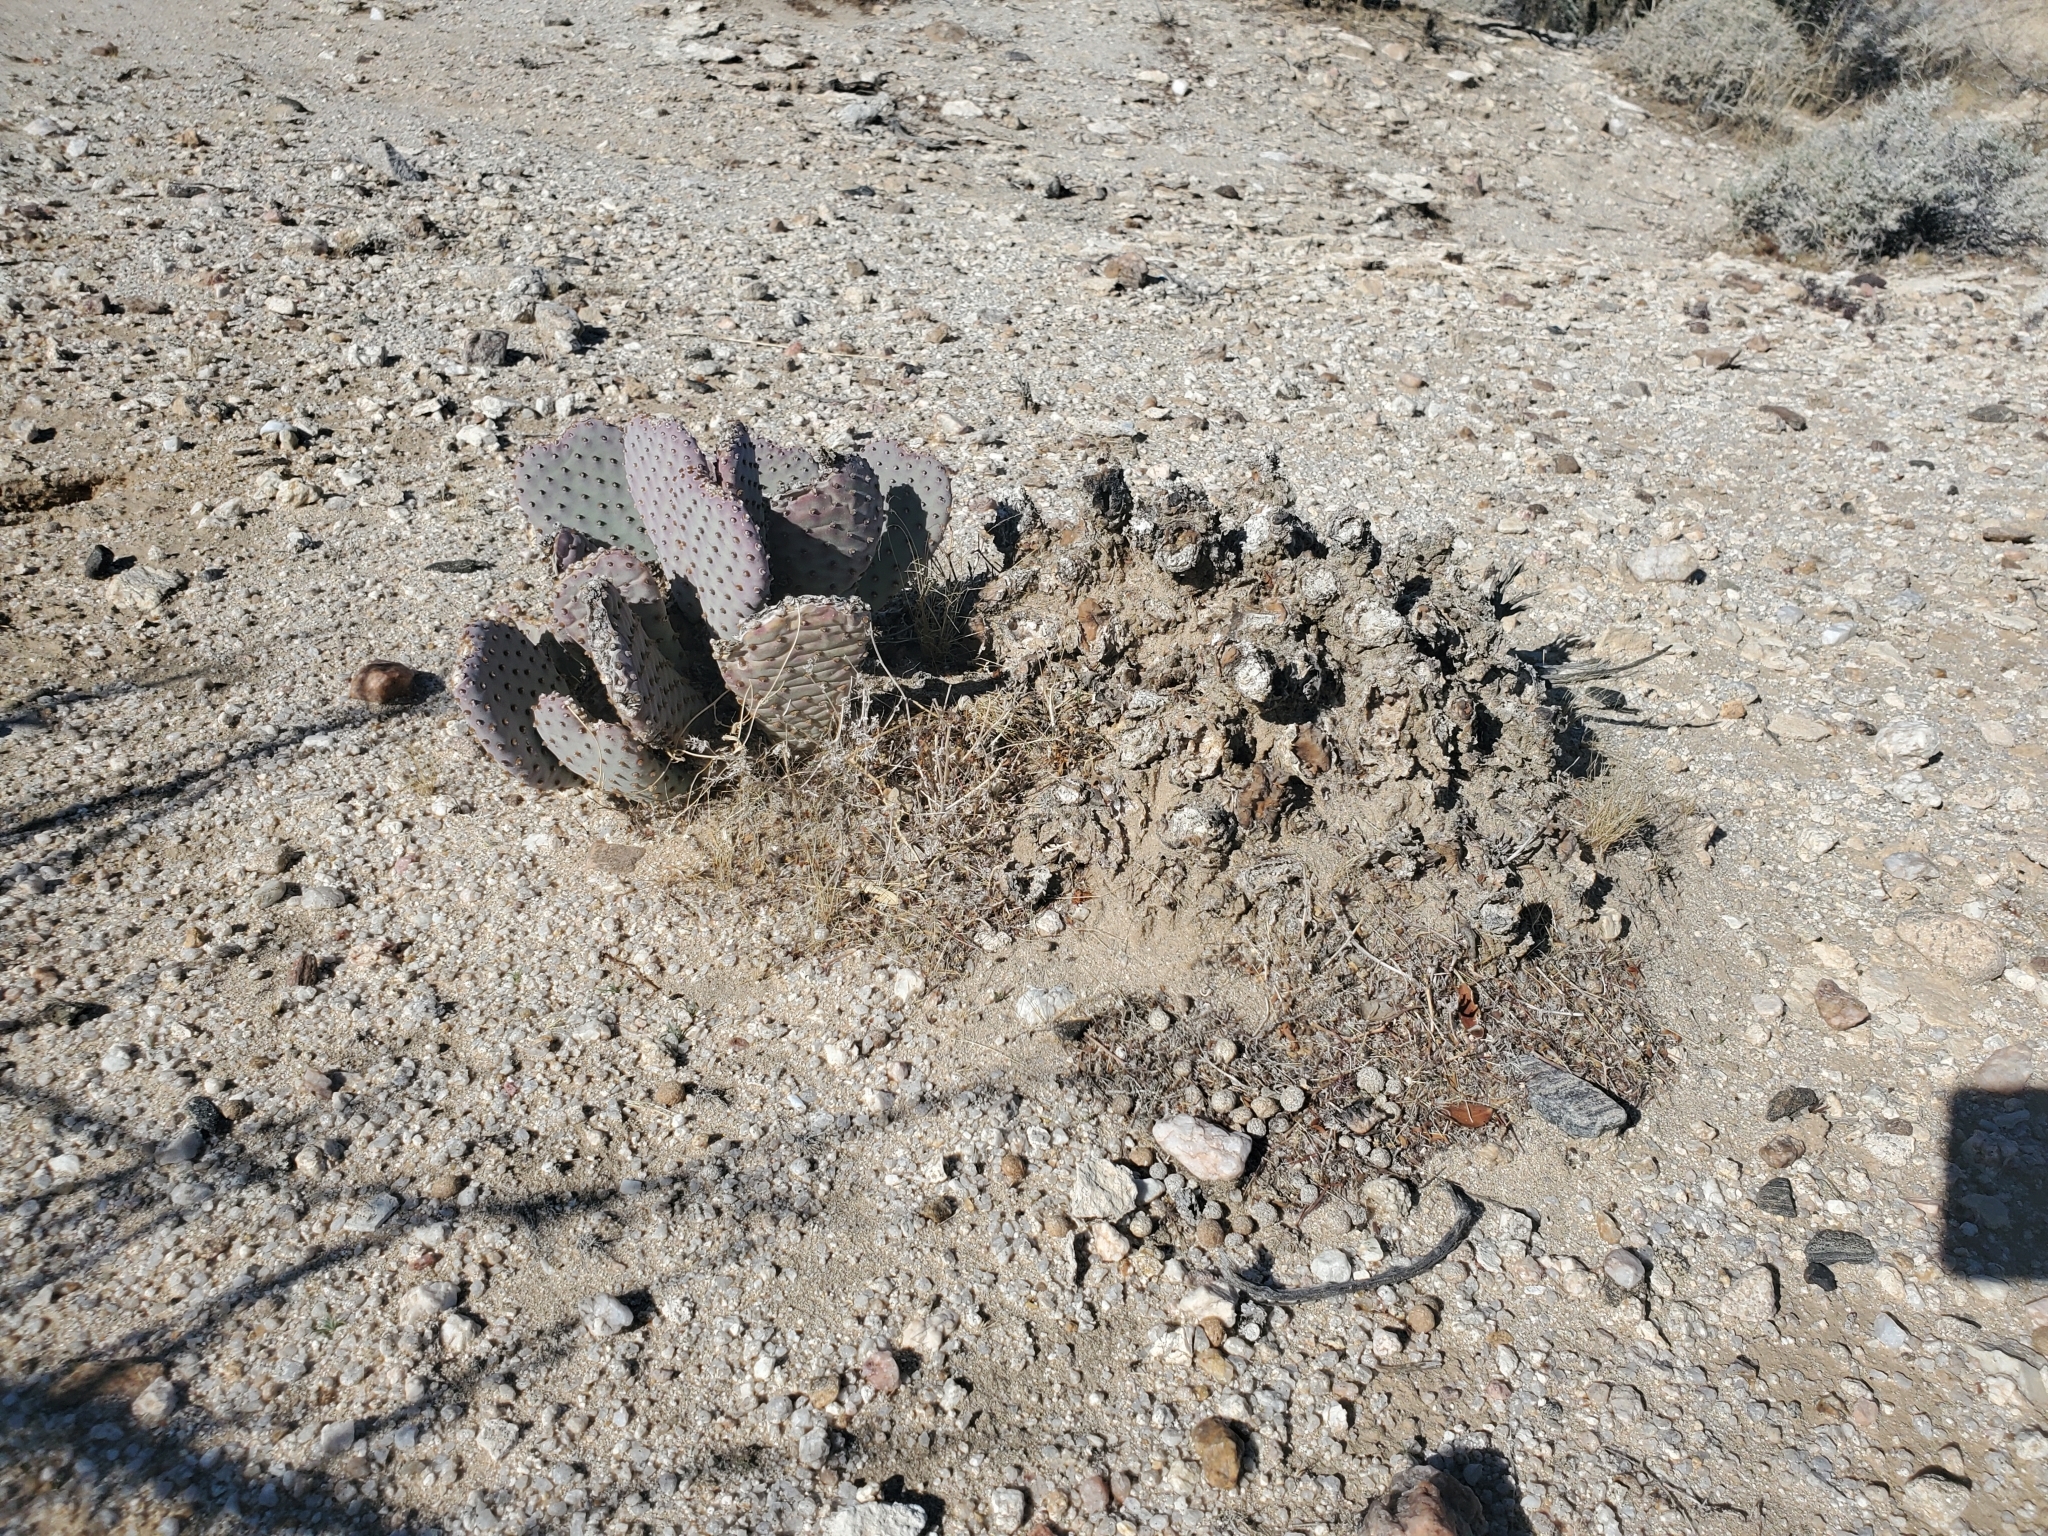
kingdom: Plantae
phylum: Tracheophyta
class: Magnoliopsida
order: Caryophyllales
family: Cactaceae
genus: Opuntia
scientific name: Opuntia basilaris
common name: Beavertail prickly-pear
